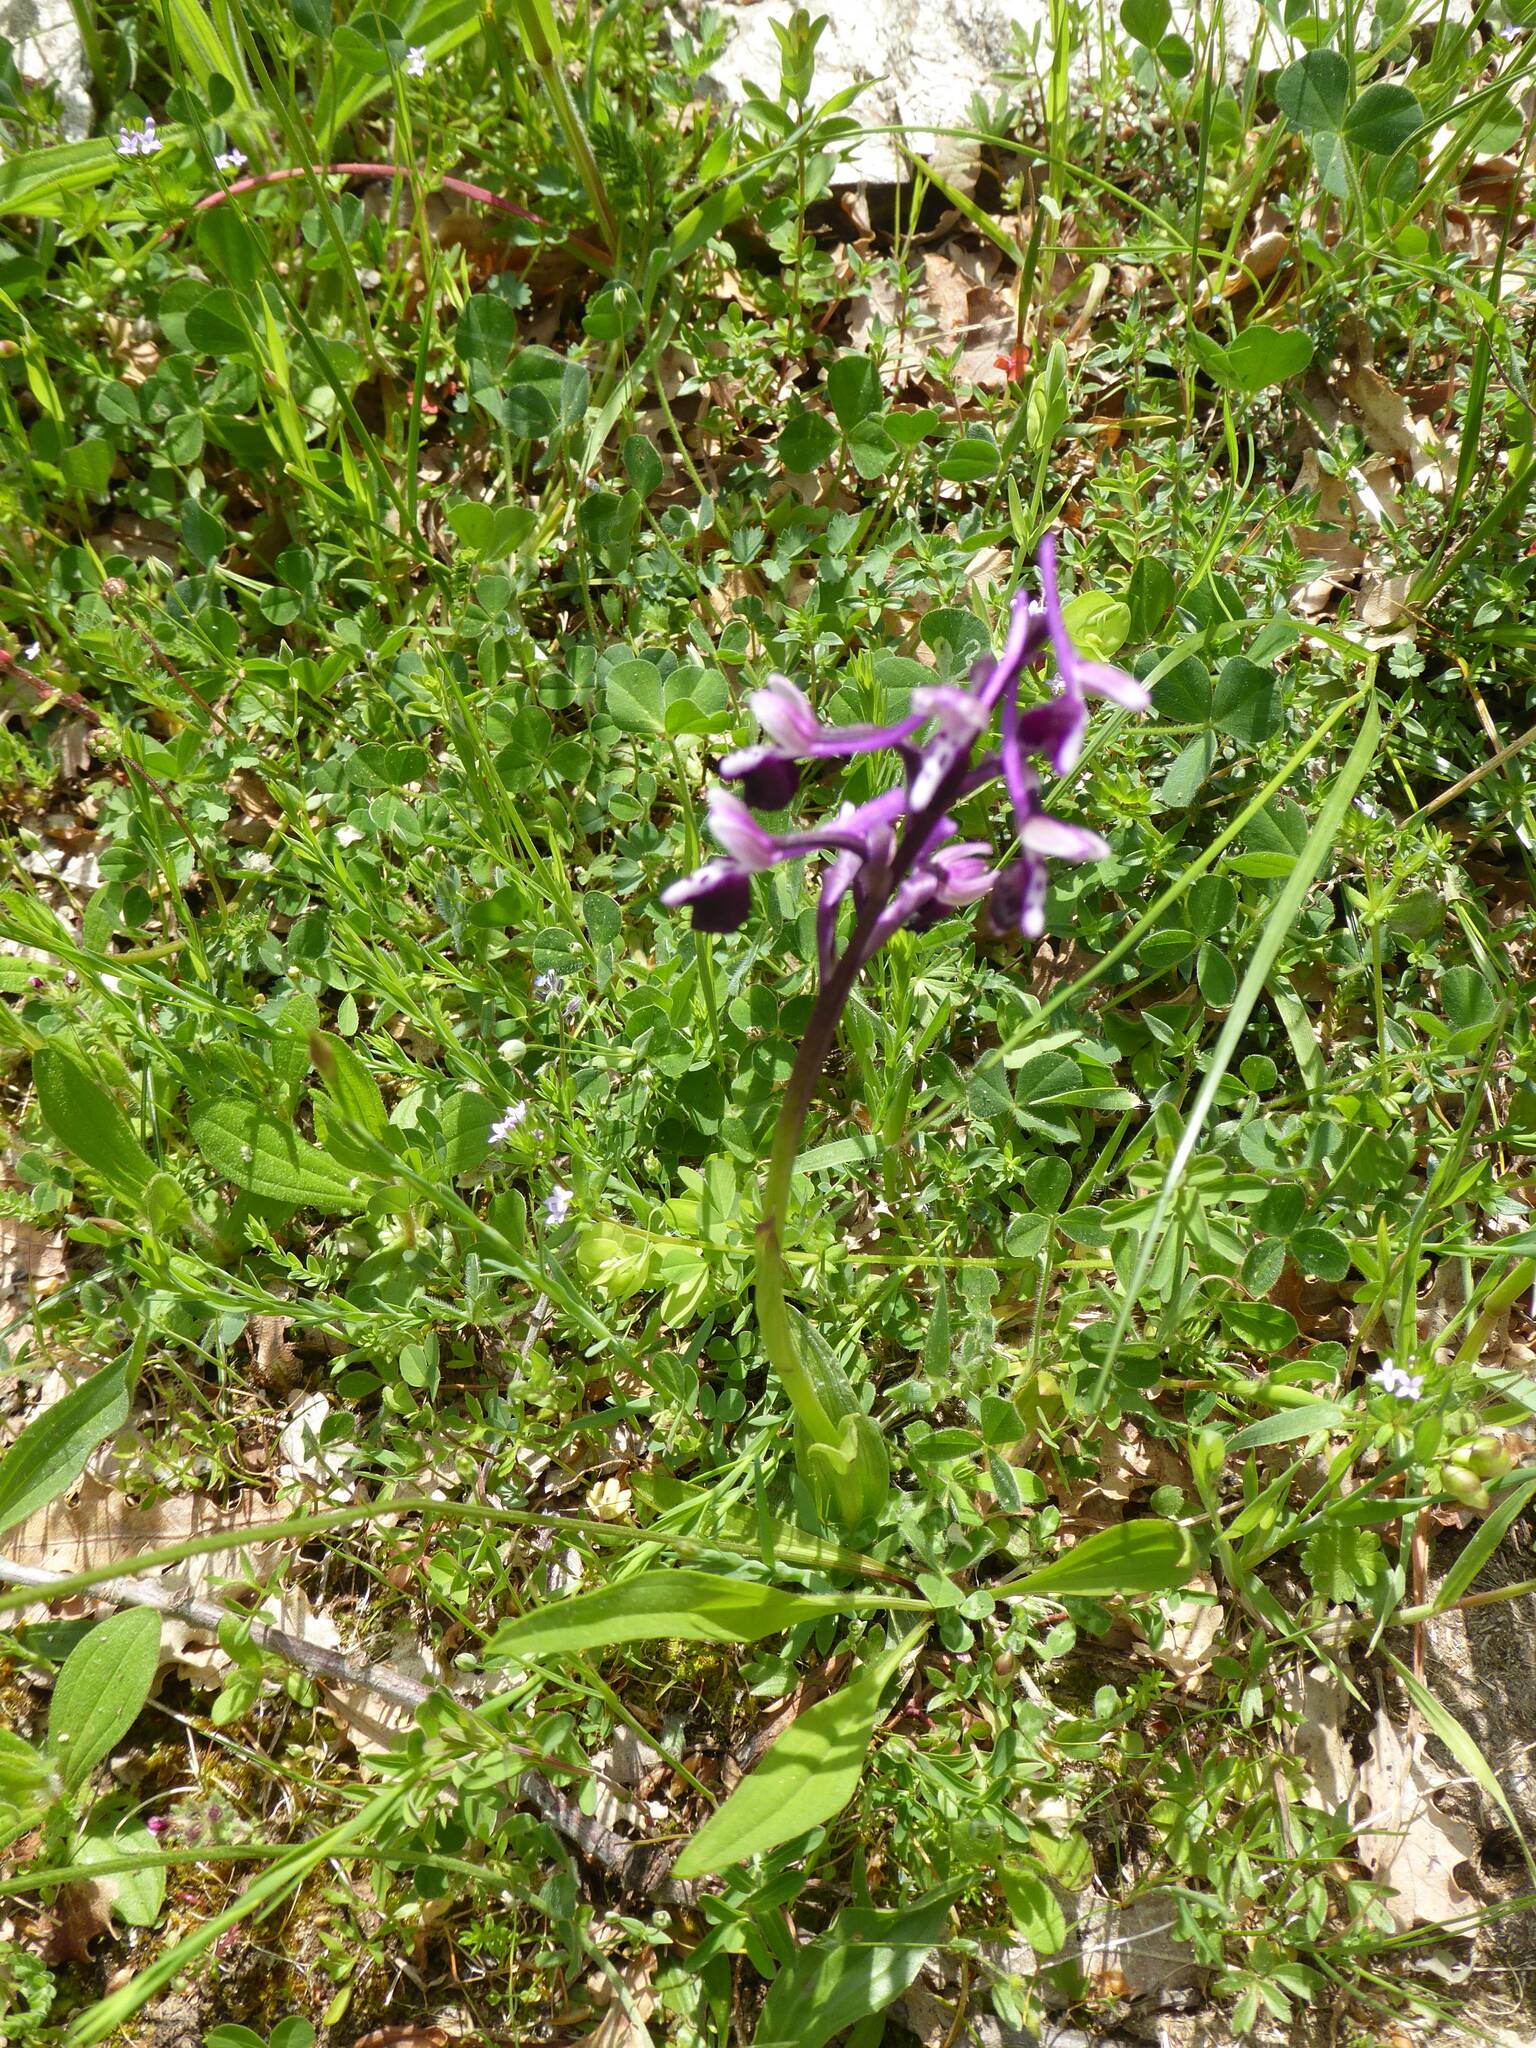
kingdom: Plantae
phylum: Tracheophyta
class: Liliopsida
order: Asparagales
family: Orchidaceae
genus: Anacamptis
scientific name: Anacamptis morio
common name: Green-winged orchid
